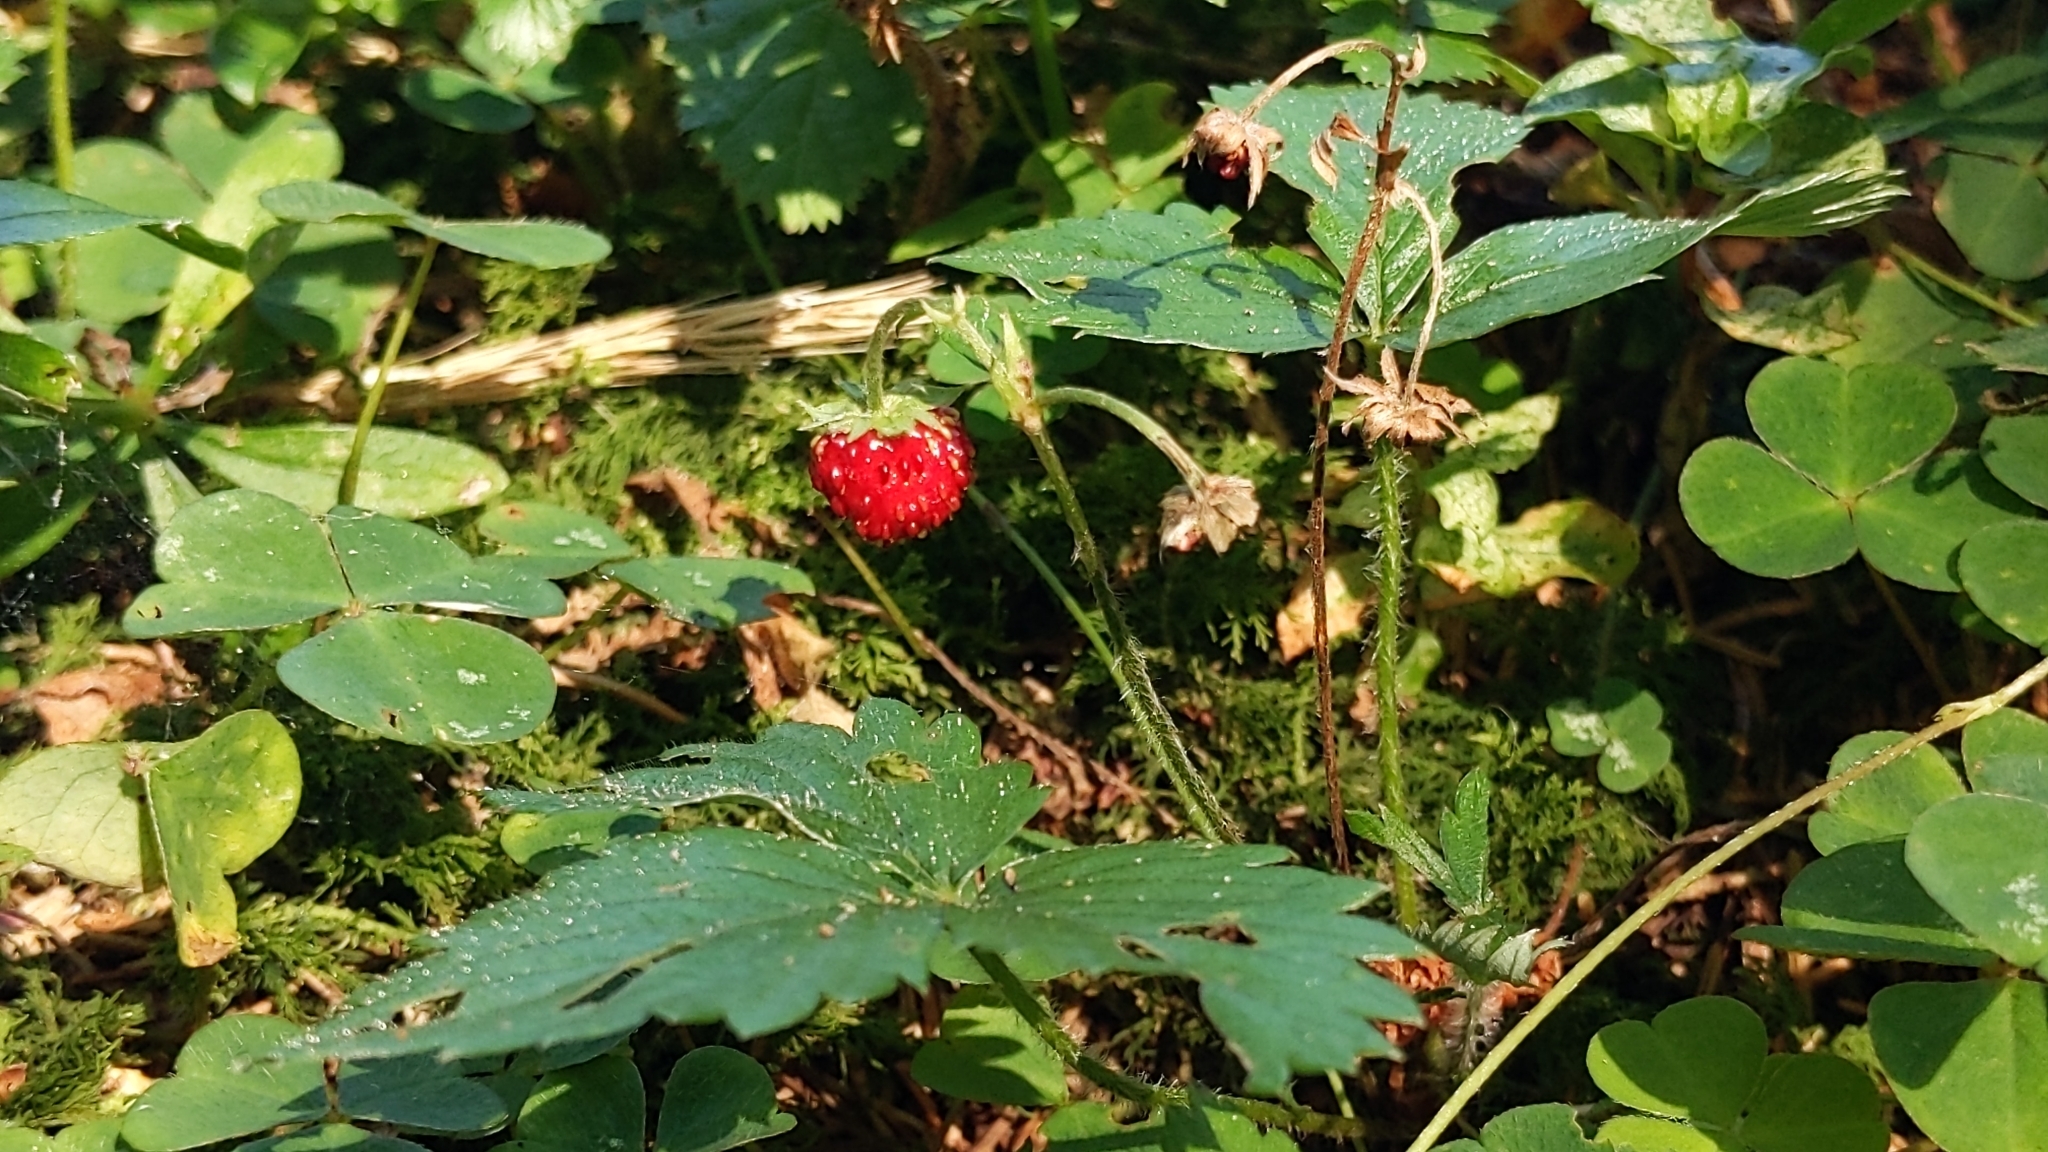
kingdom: Plantae
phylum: Tracheophyta
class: Magnoliopsida
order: Rosales
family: Rosaceae
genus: Fragaria
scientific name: Fragaria vesca
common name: Wild strawberry
